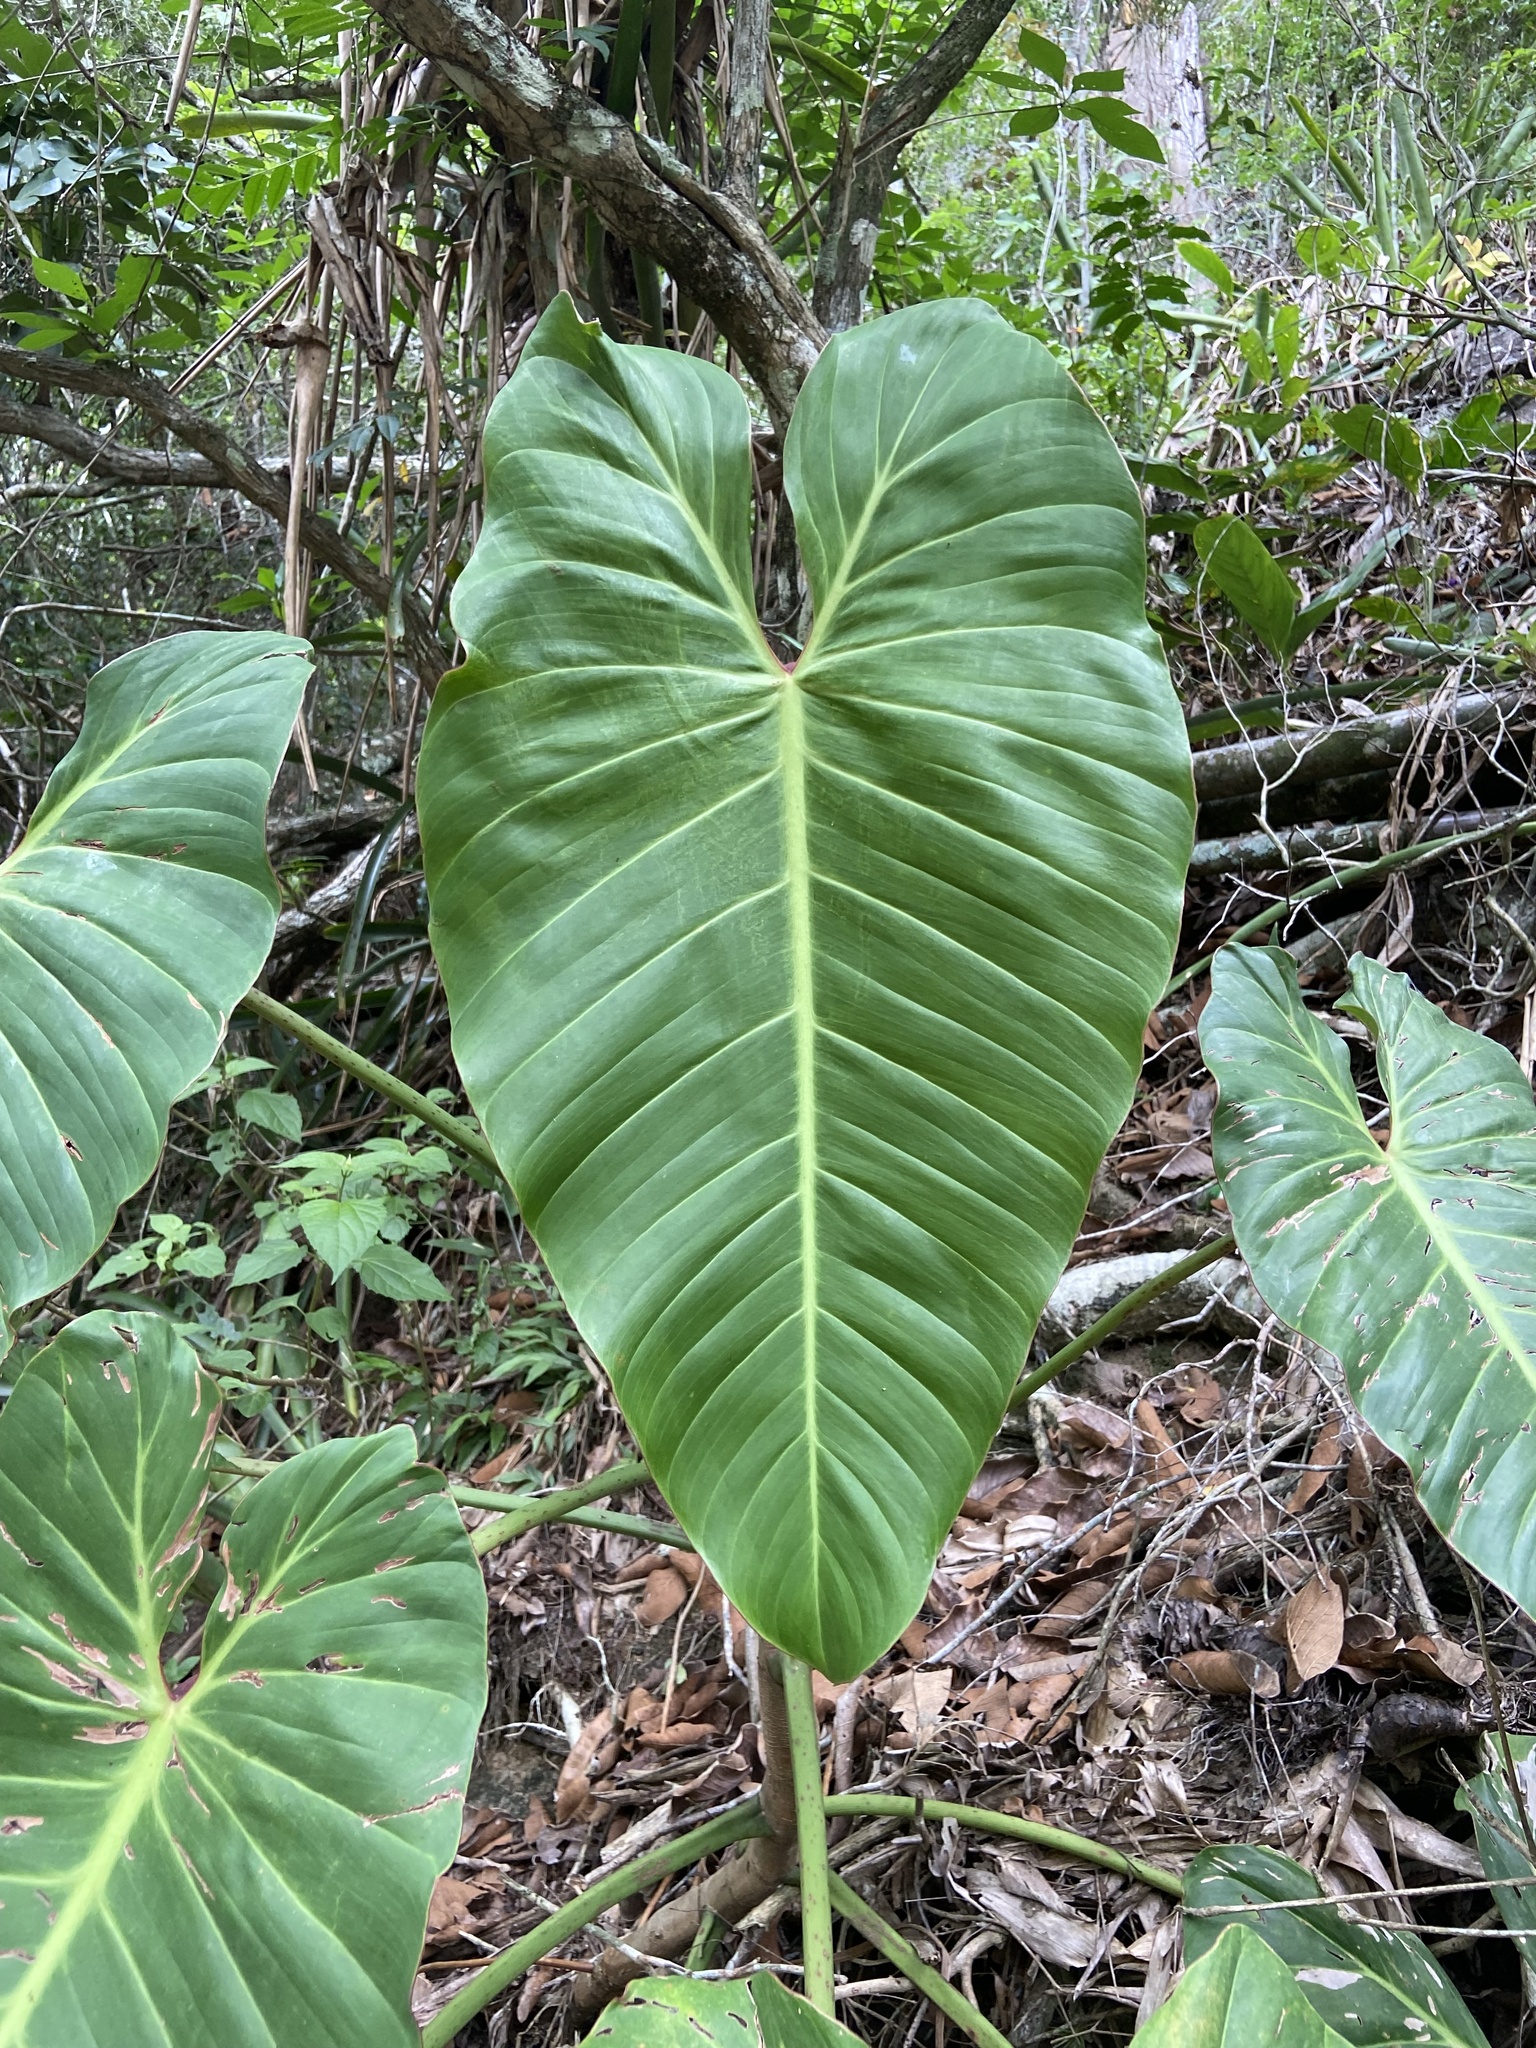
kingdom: Plantae
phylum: Tracheophyta
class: Liliopsida
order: Alismatales
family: Araceae
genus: Philodendron
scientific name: Philodendron bernardopazii
